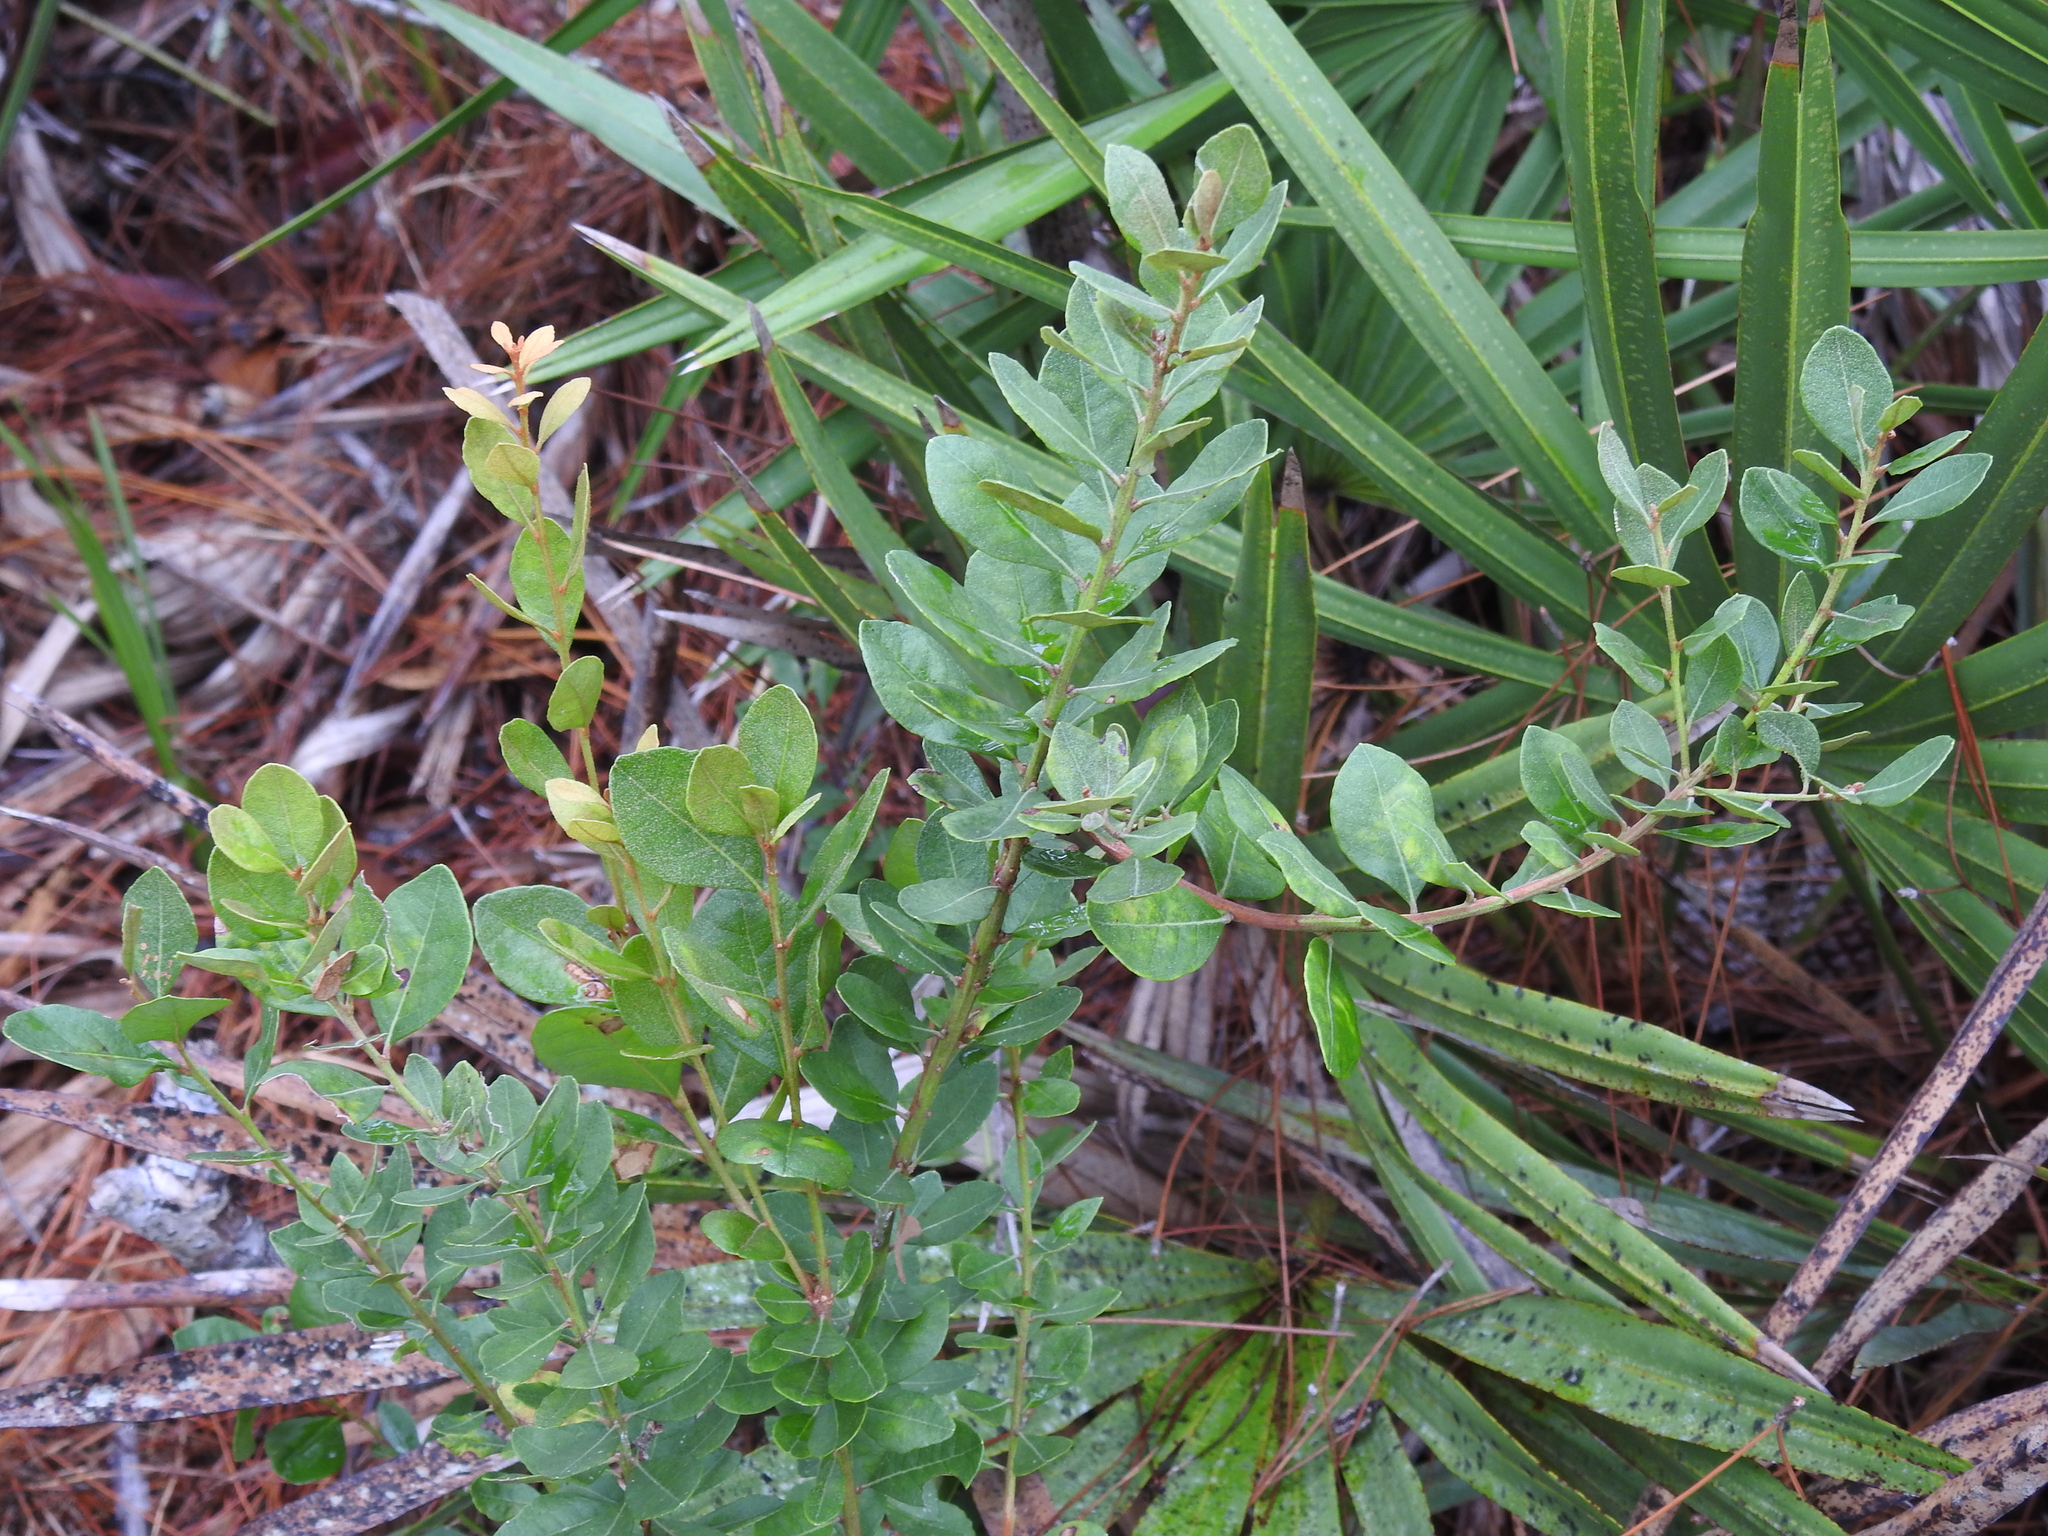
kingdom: Plantae
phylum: Tracheophyta
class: Magnoliopsida
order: Ericales
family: Ericaceae
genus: Lyonia
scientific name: Lyonia fruticosa
